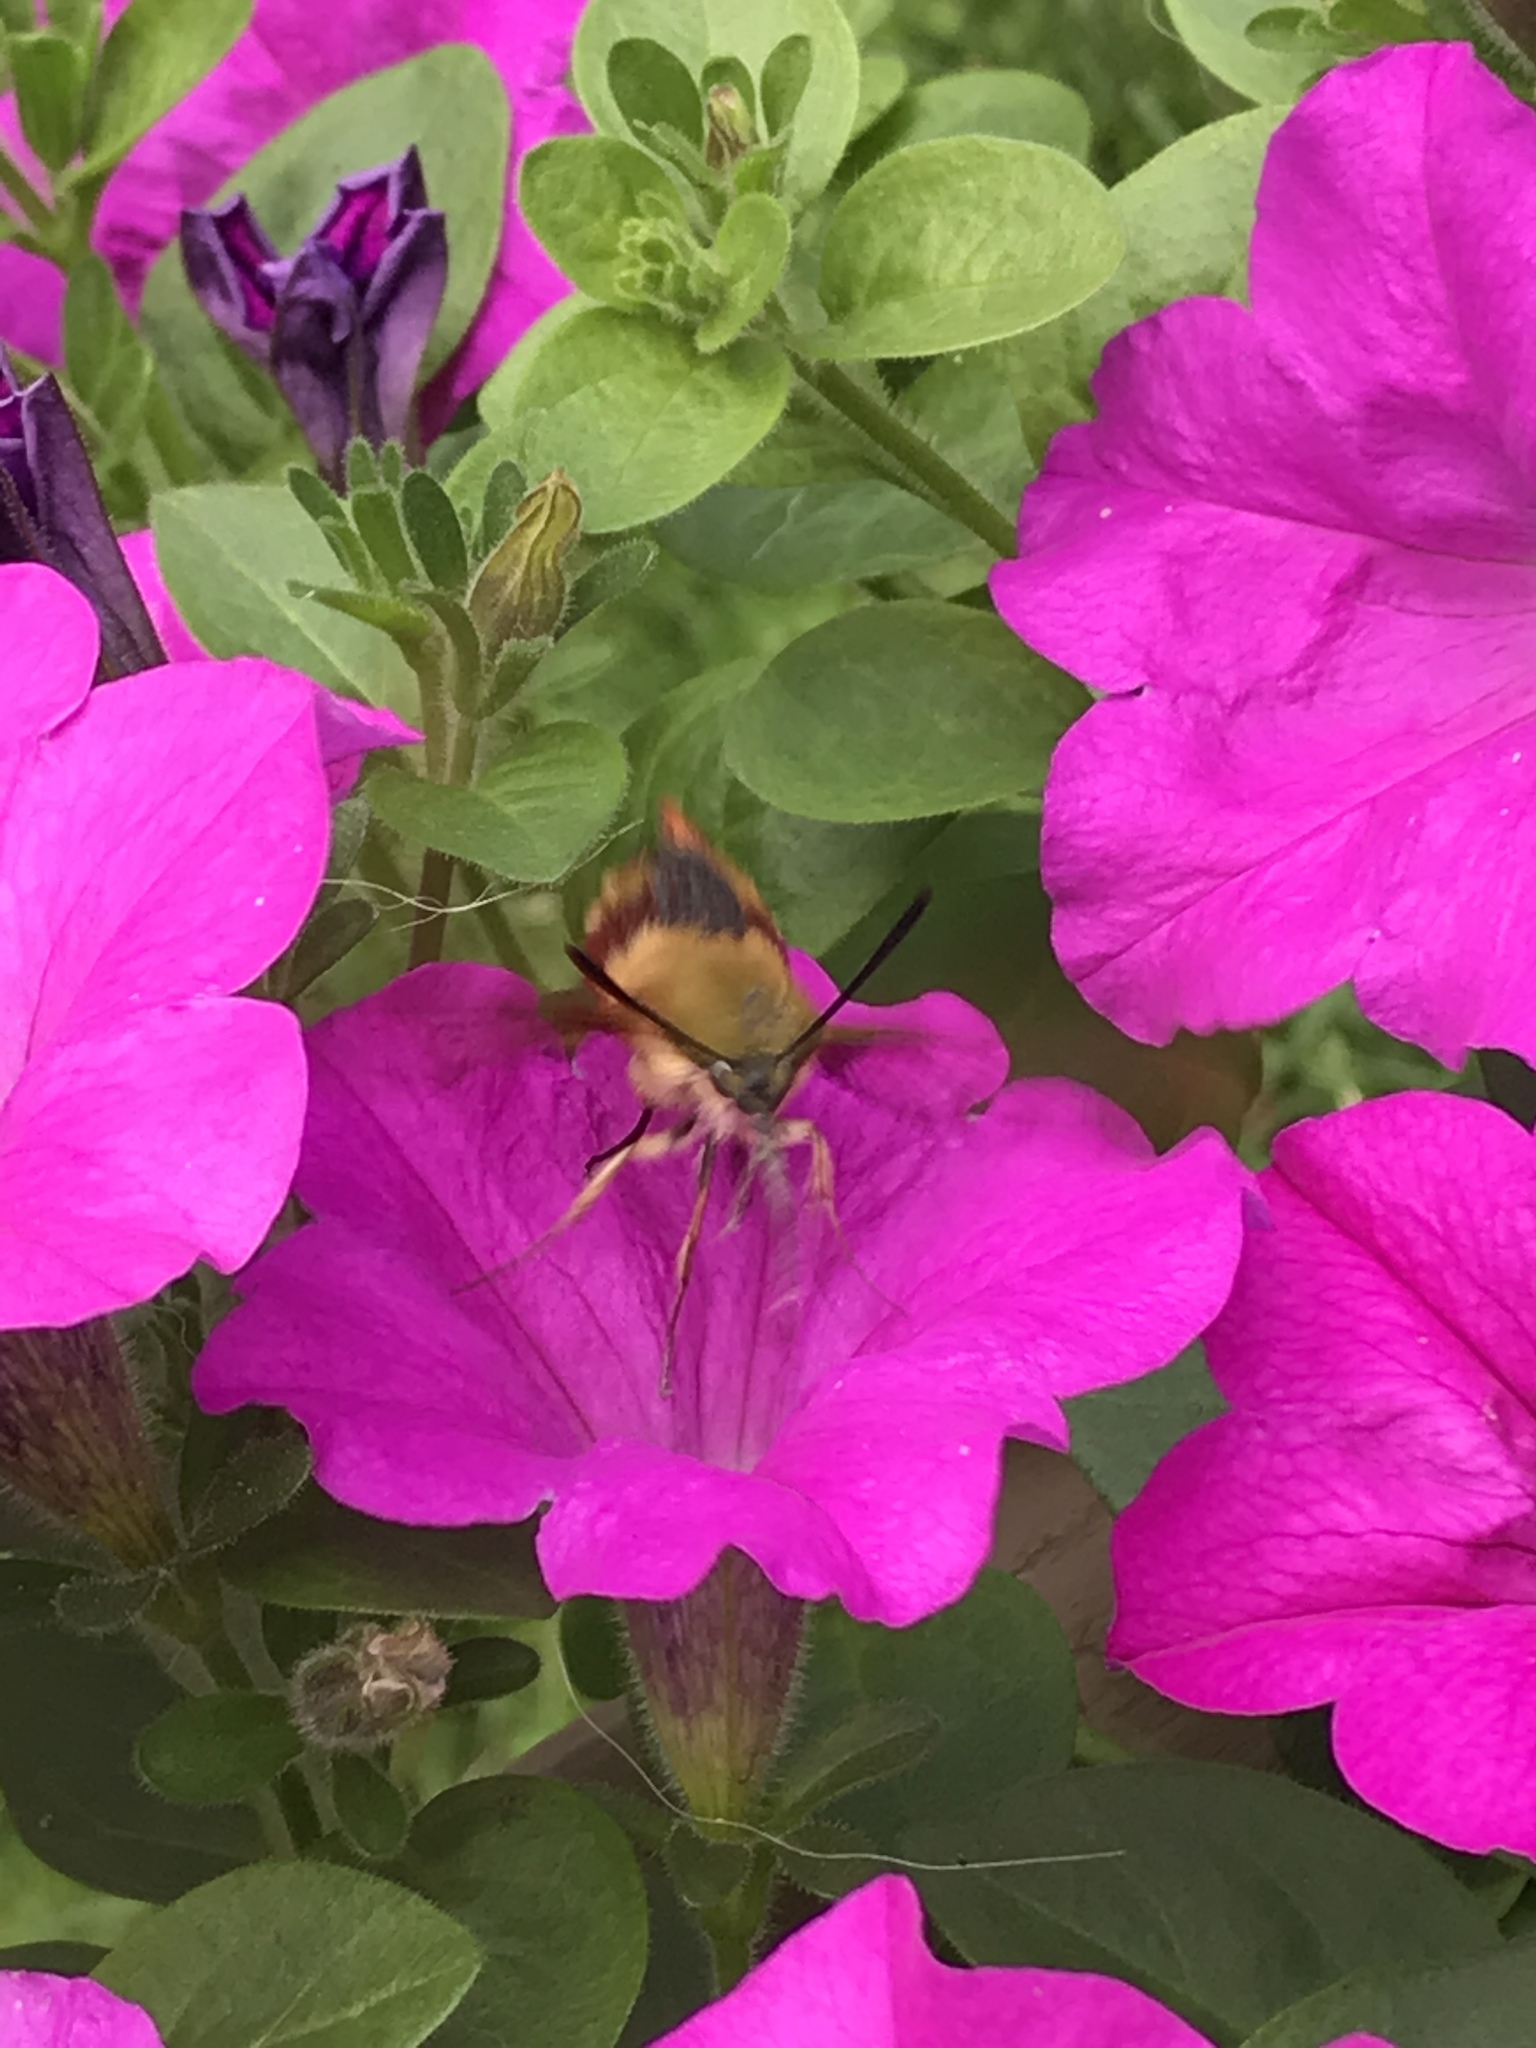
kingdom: Animalia
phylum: Arthropoda
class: Insecta
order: Lepidoptera
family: Sphingidae
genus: Hemaris
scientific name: Hemaris thysbe
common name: Common clear-wing
